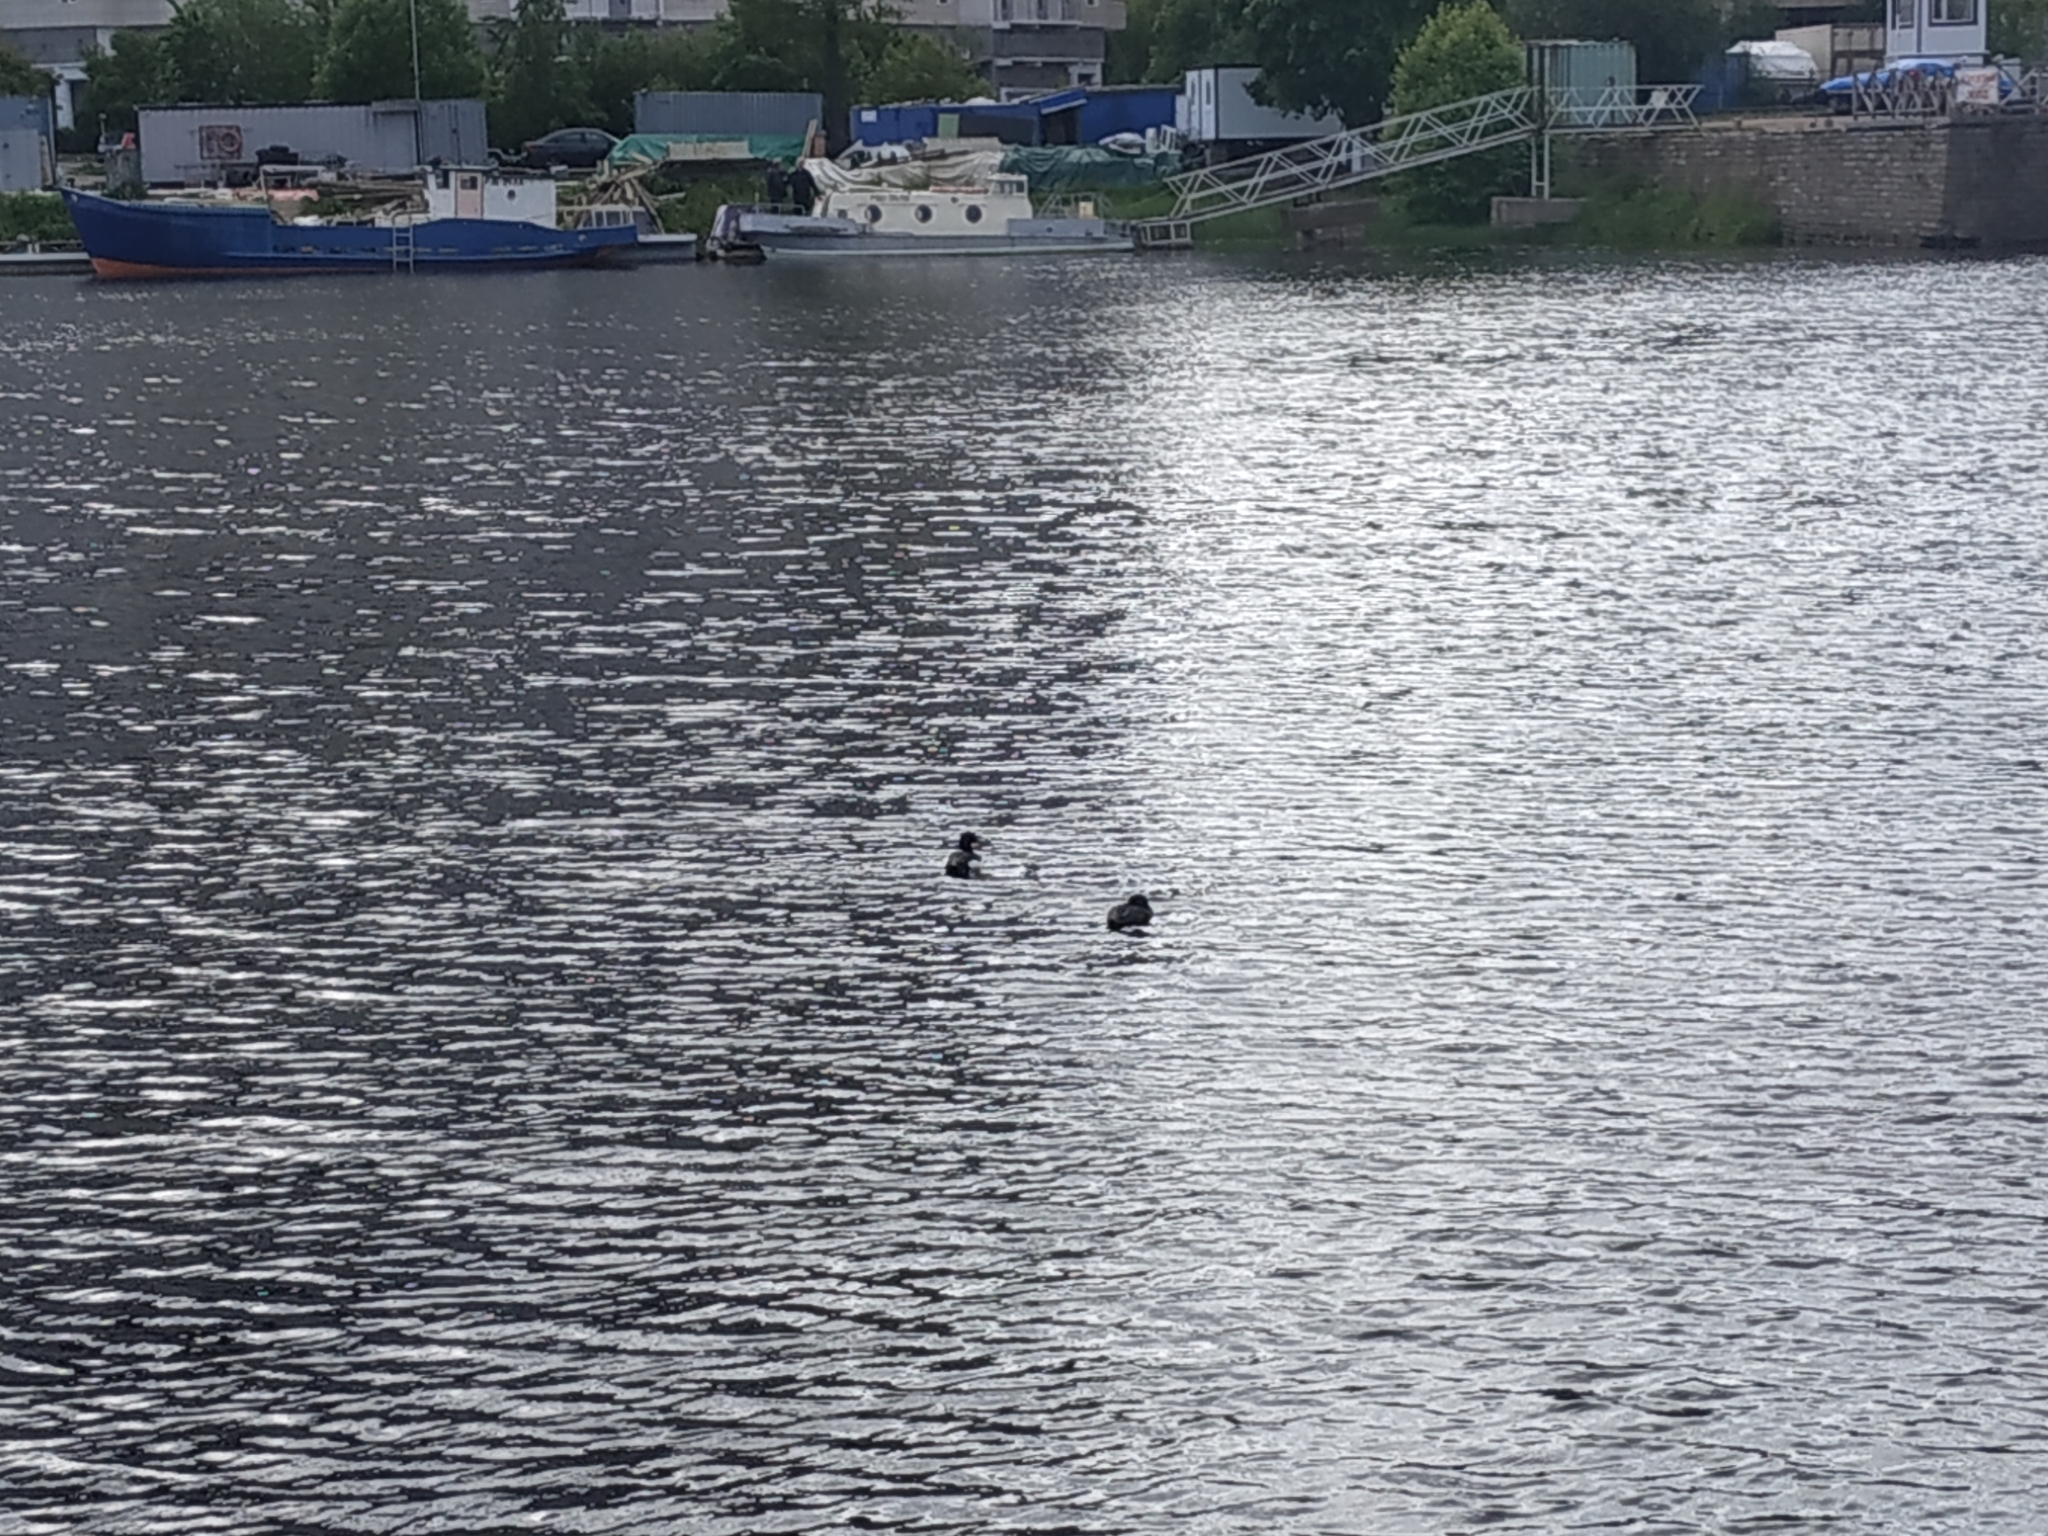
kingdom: Animalia
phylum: Chordata
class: Aves
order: Anseriformes
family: Anatidae
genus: Aythya
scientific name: Aythya fuligula
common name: Tufted duck
